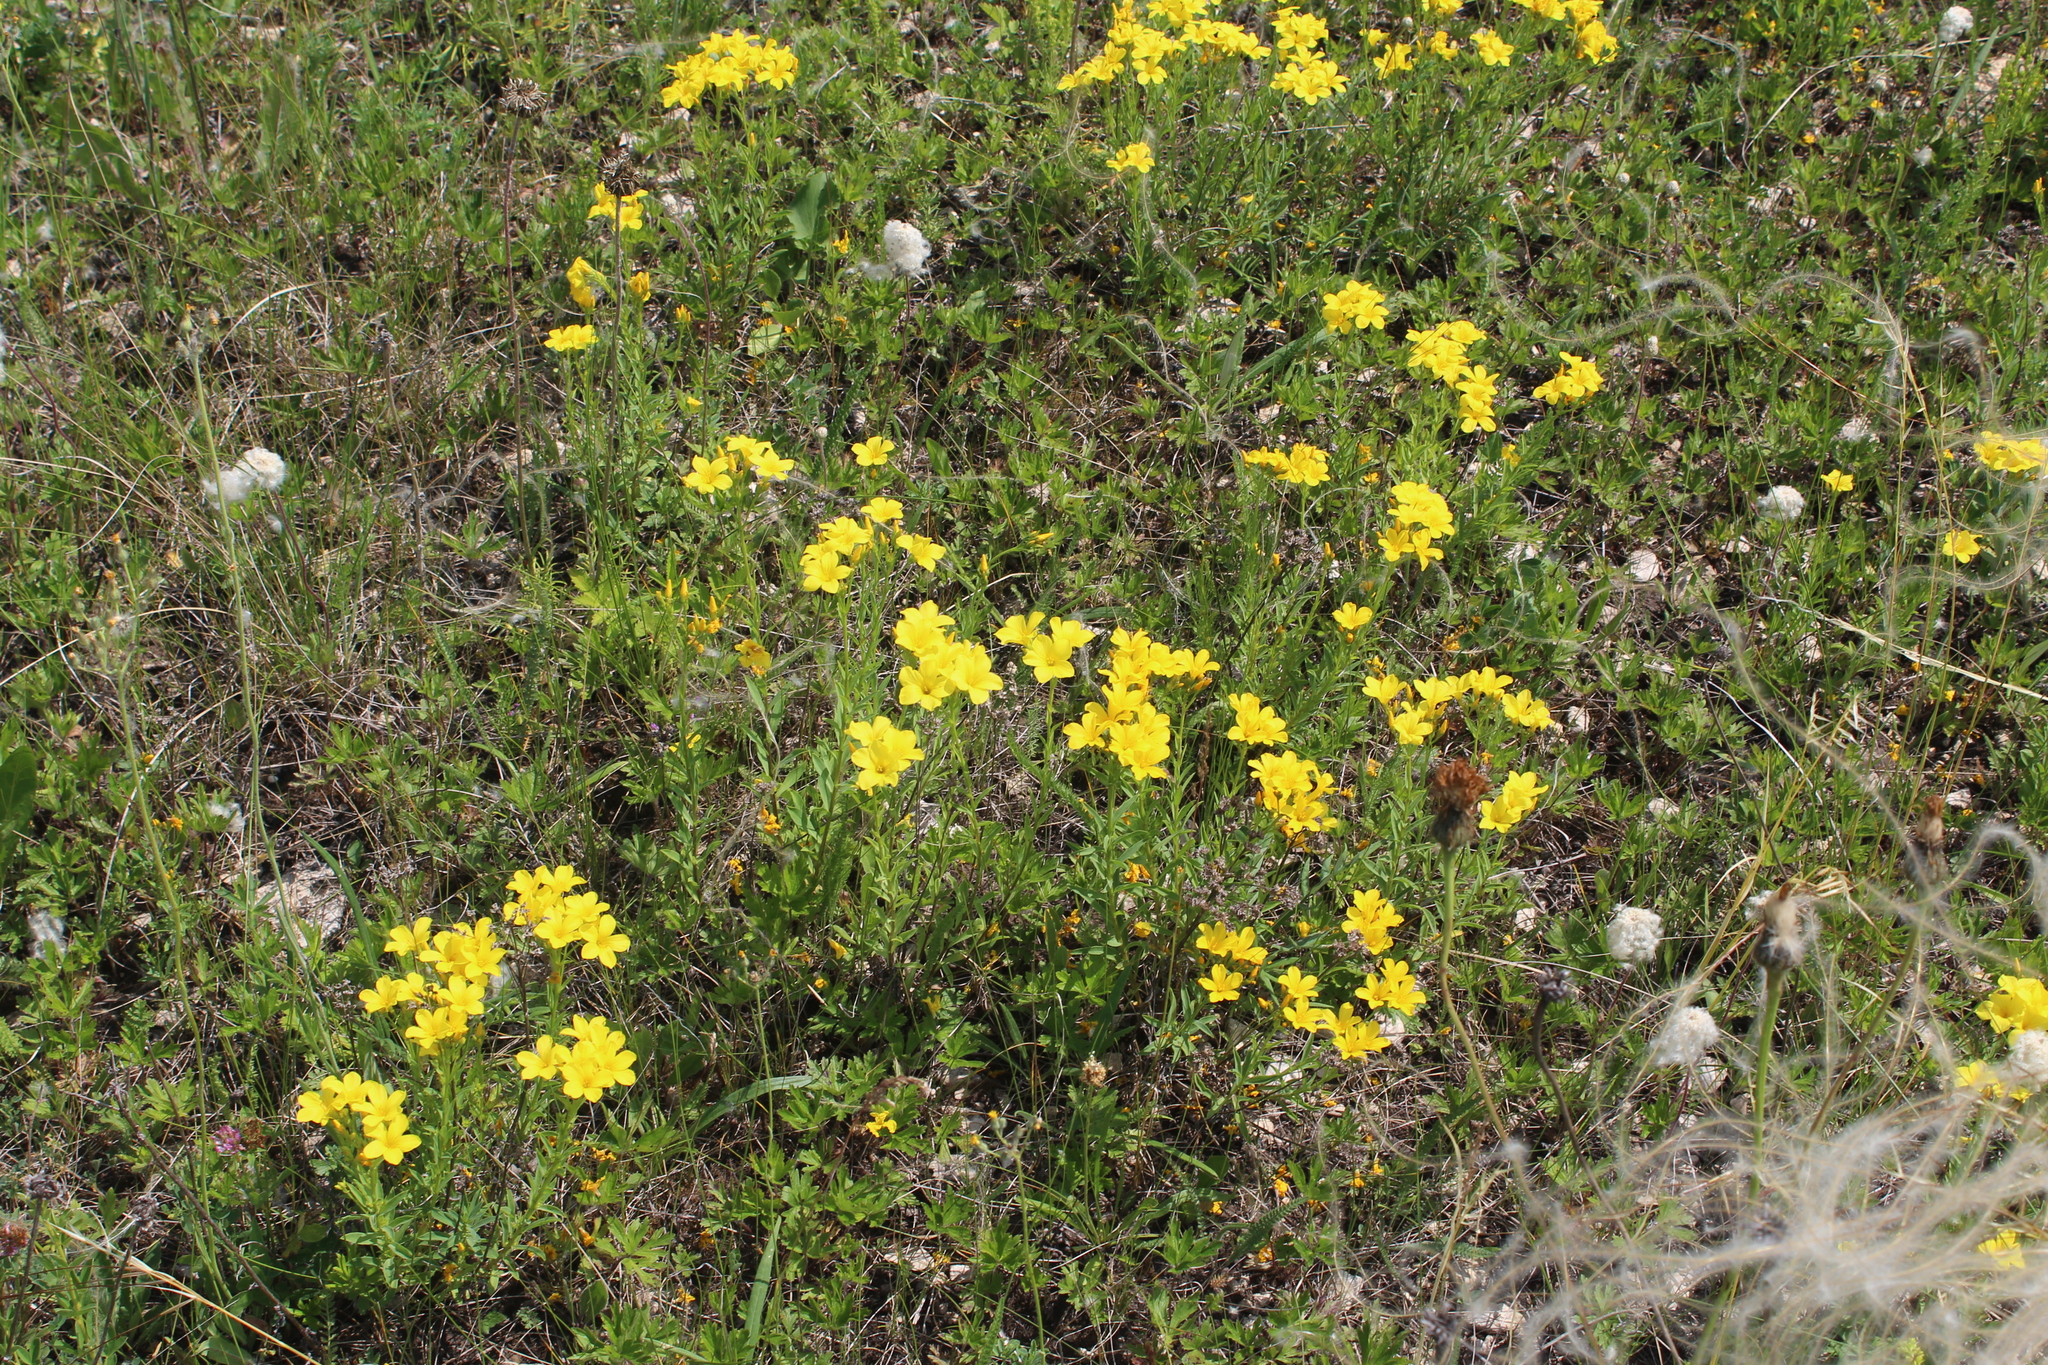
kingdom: Plantae
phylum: Tracheophyta
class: Magnoliopsida
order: Malpighiales
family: Linaceae
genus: Linum
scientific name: Linum flavum
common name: Yellow flax
